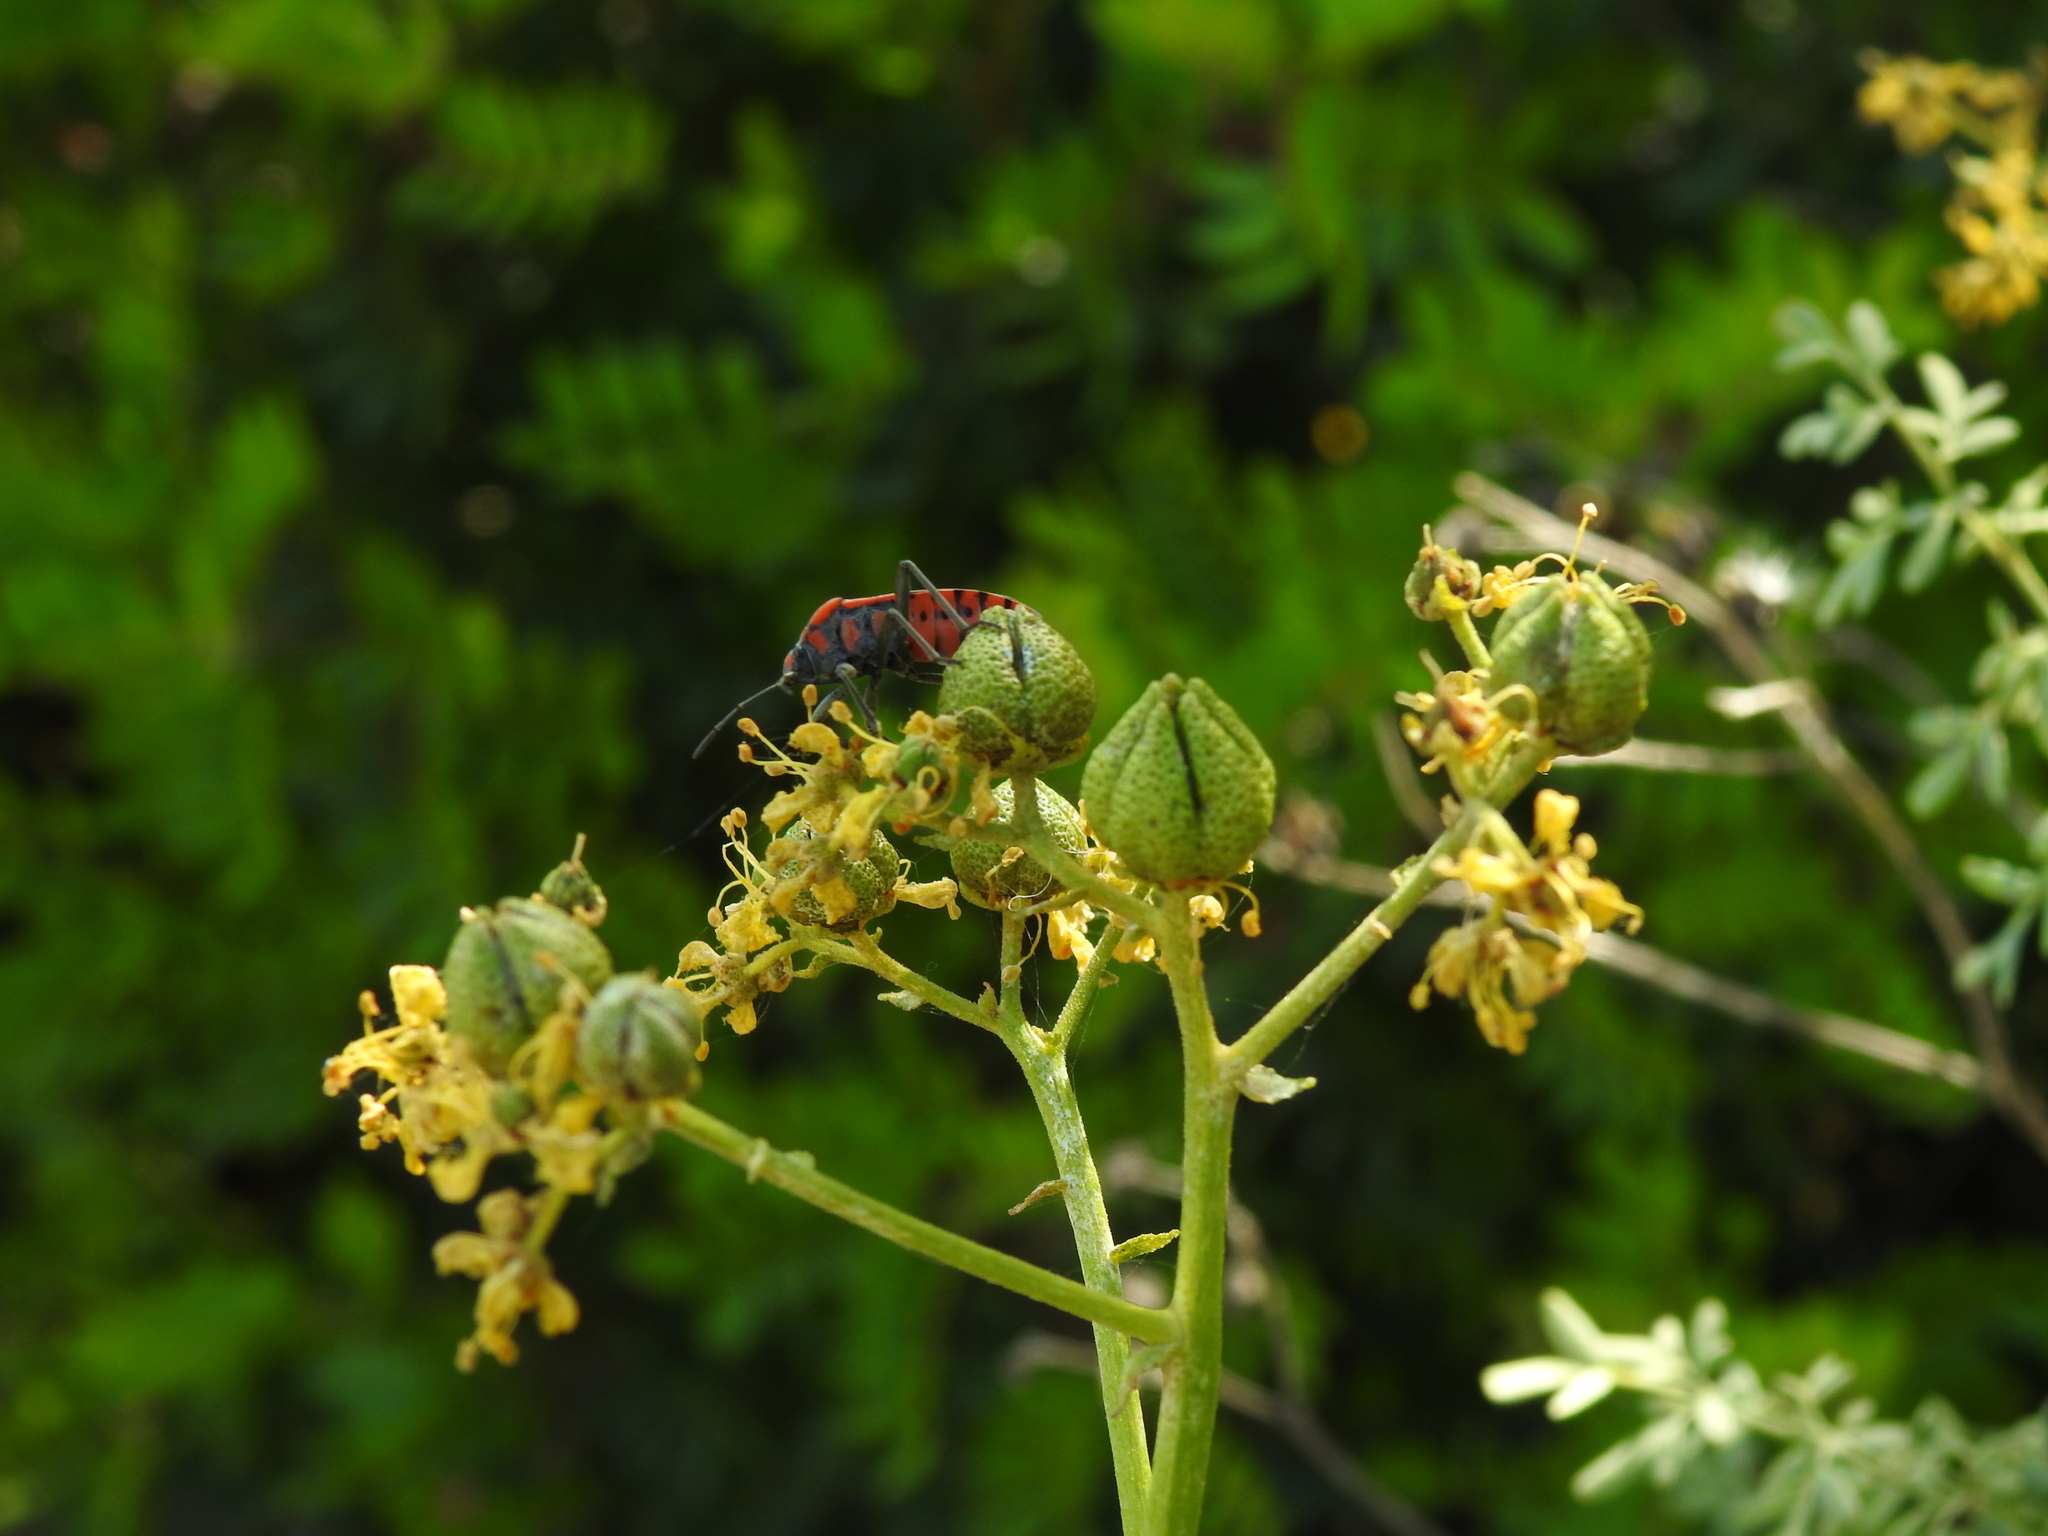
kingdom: Plantae
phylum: Tracheophyta
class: Magnoliopsida
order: Sapindales
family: Rutaceae
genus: Ruta
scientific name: Ruta angustifolia
